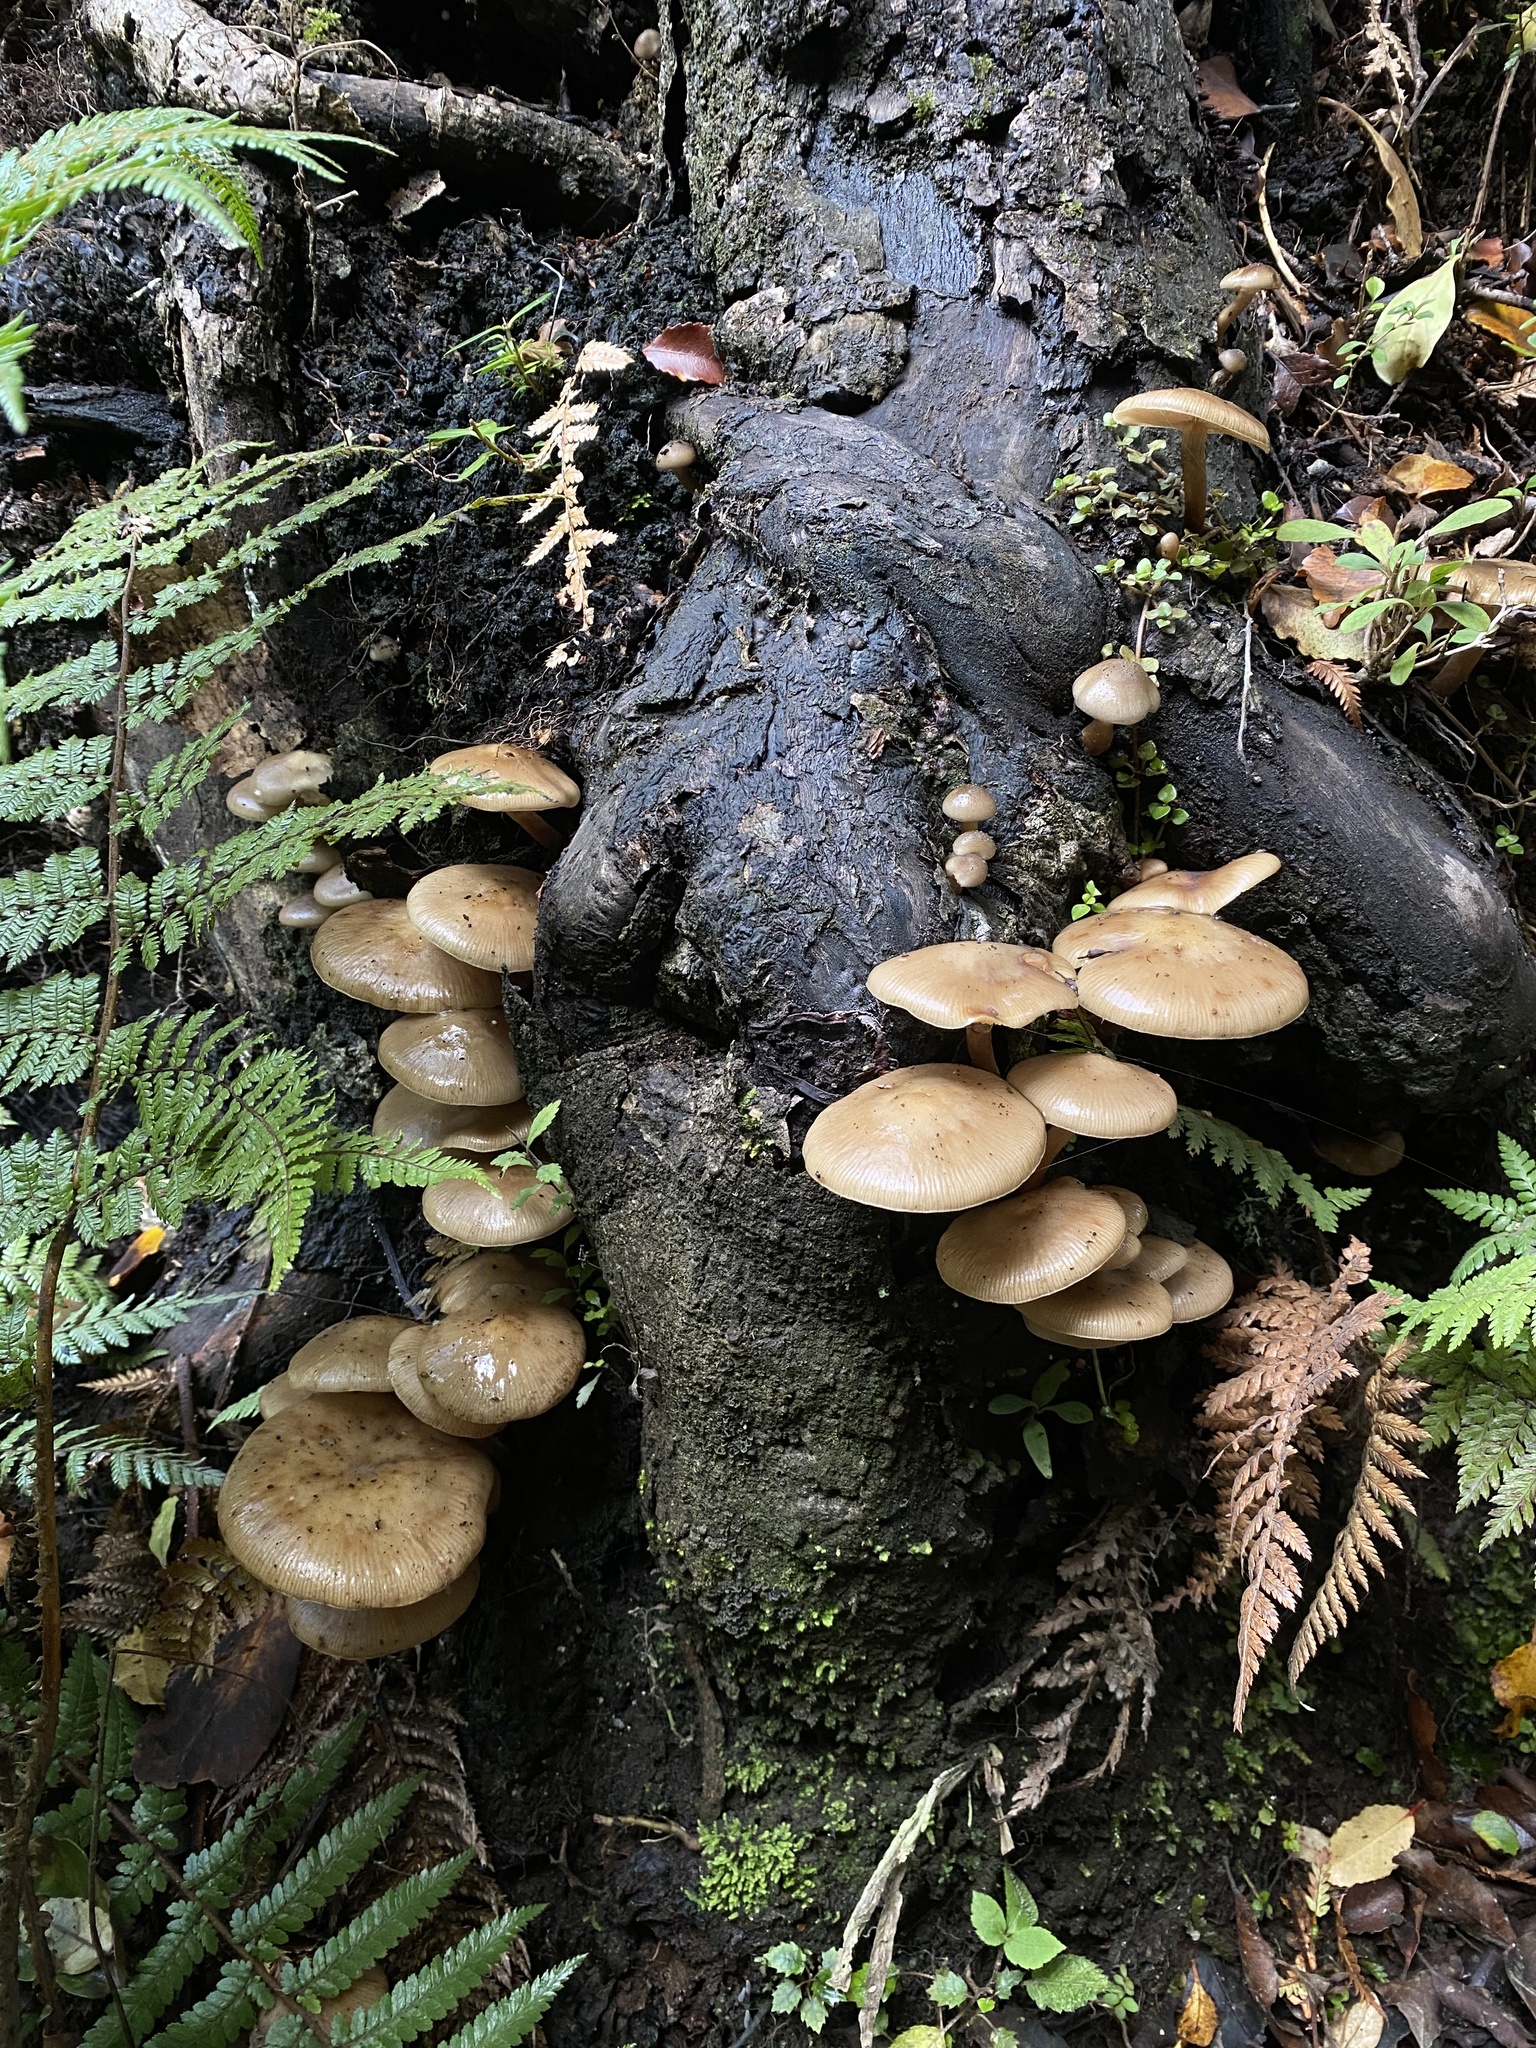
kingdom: Fungi
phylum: Basidiomycota
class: Agaricomycetes
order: Agaricales
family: Physalacriaceae
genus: Armillaria
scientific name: Armillaria novae-zelandiae
